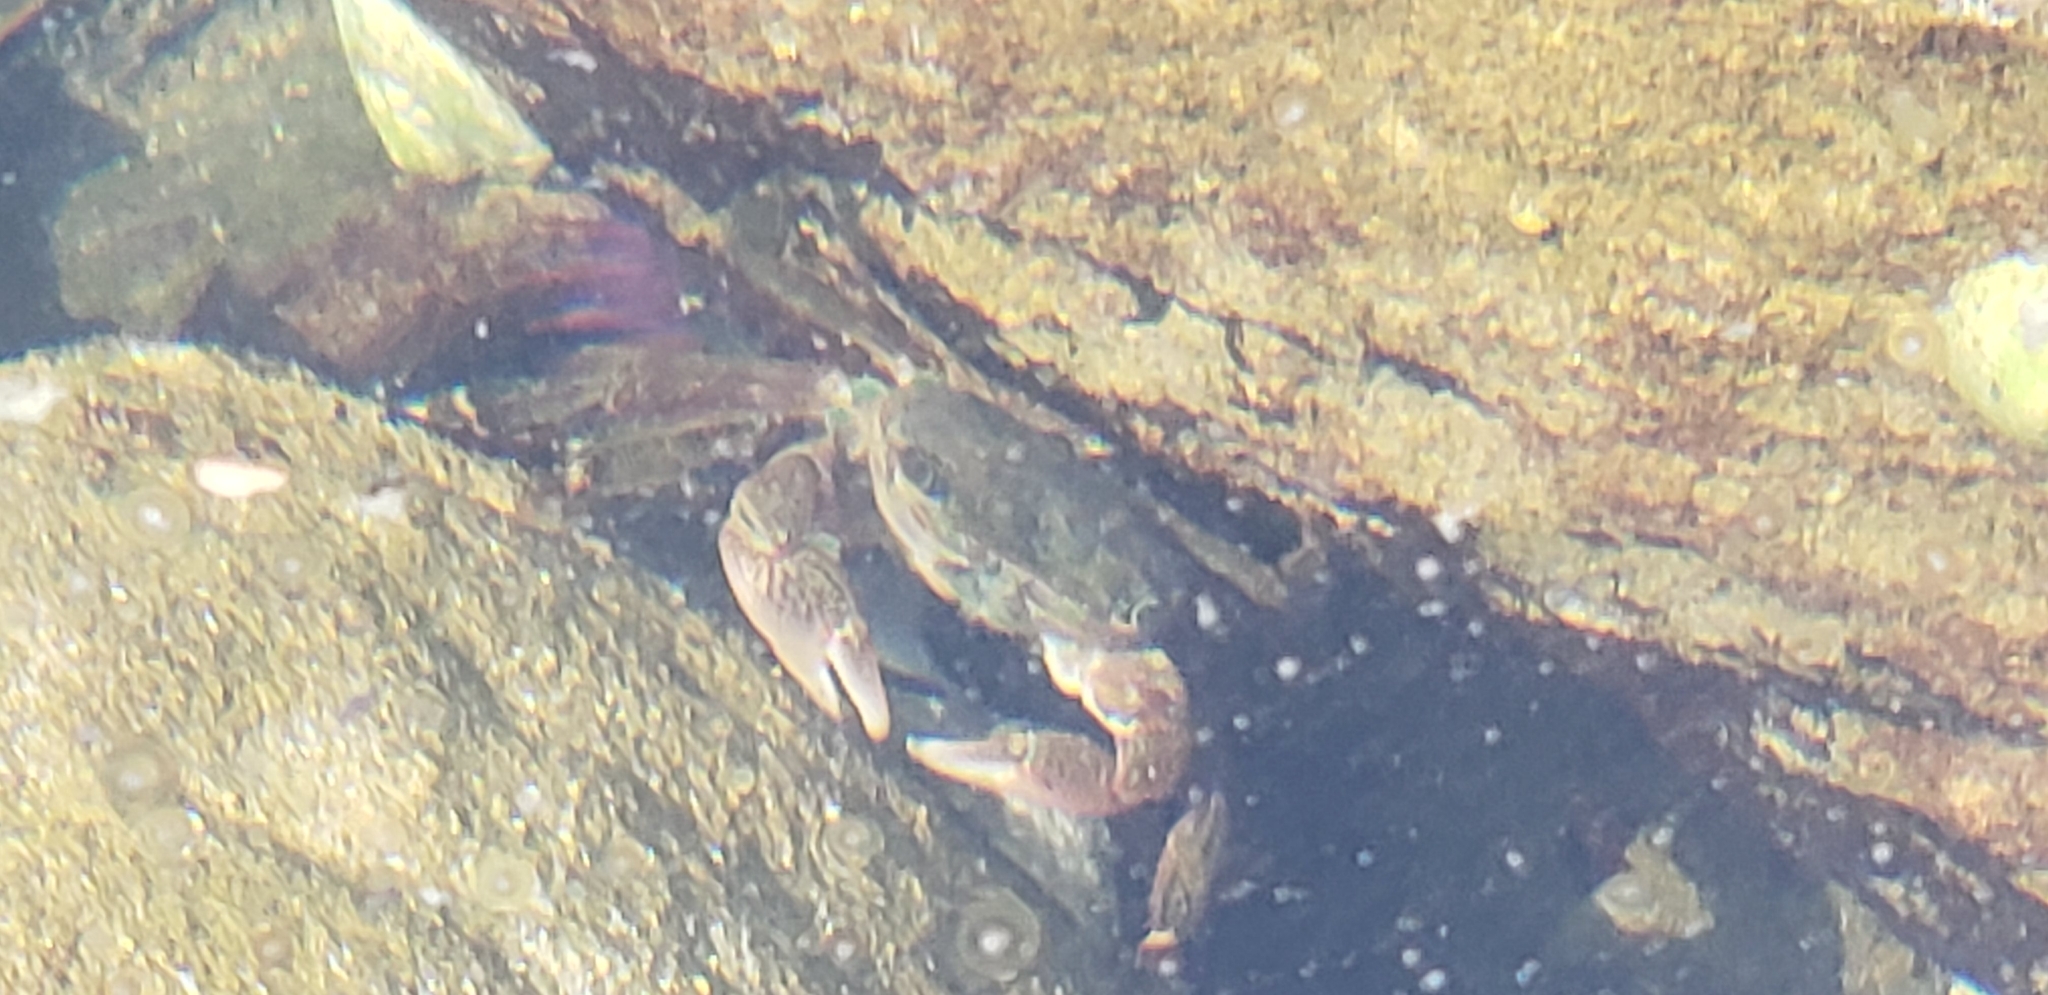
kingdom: Animalia
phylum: Arthropoda
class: Malacostraca
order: Decapoda
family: Grapsidae
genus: Pachygrapsus
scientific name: Pachygrapsus crassipes
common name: Striped shore crab
